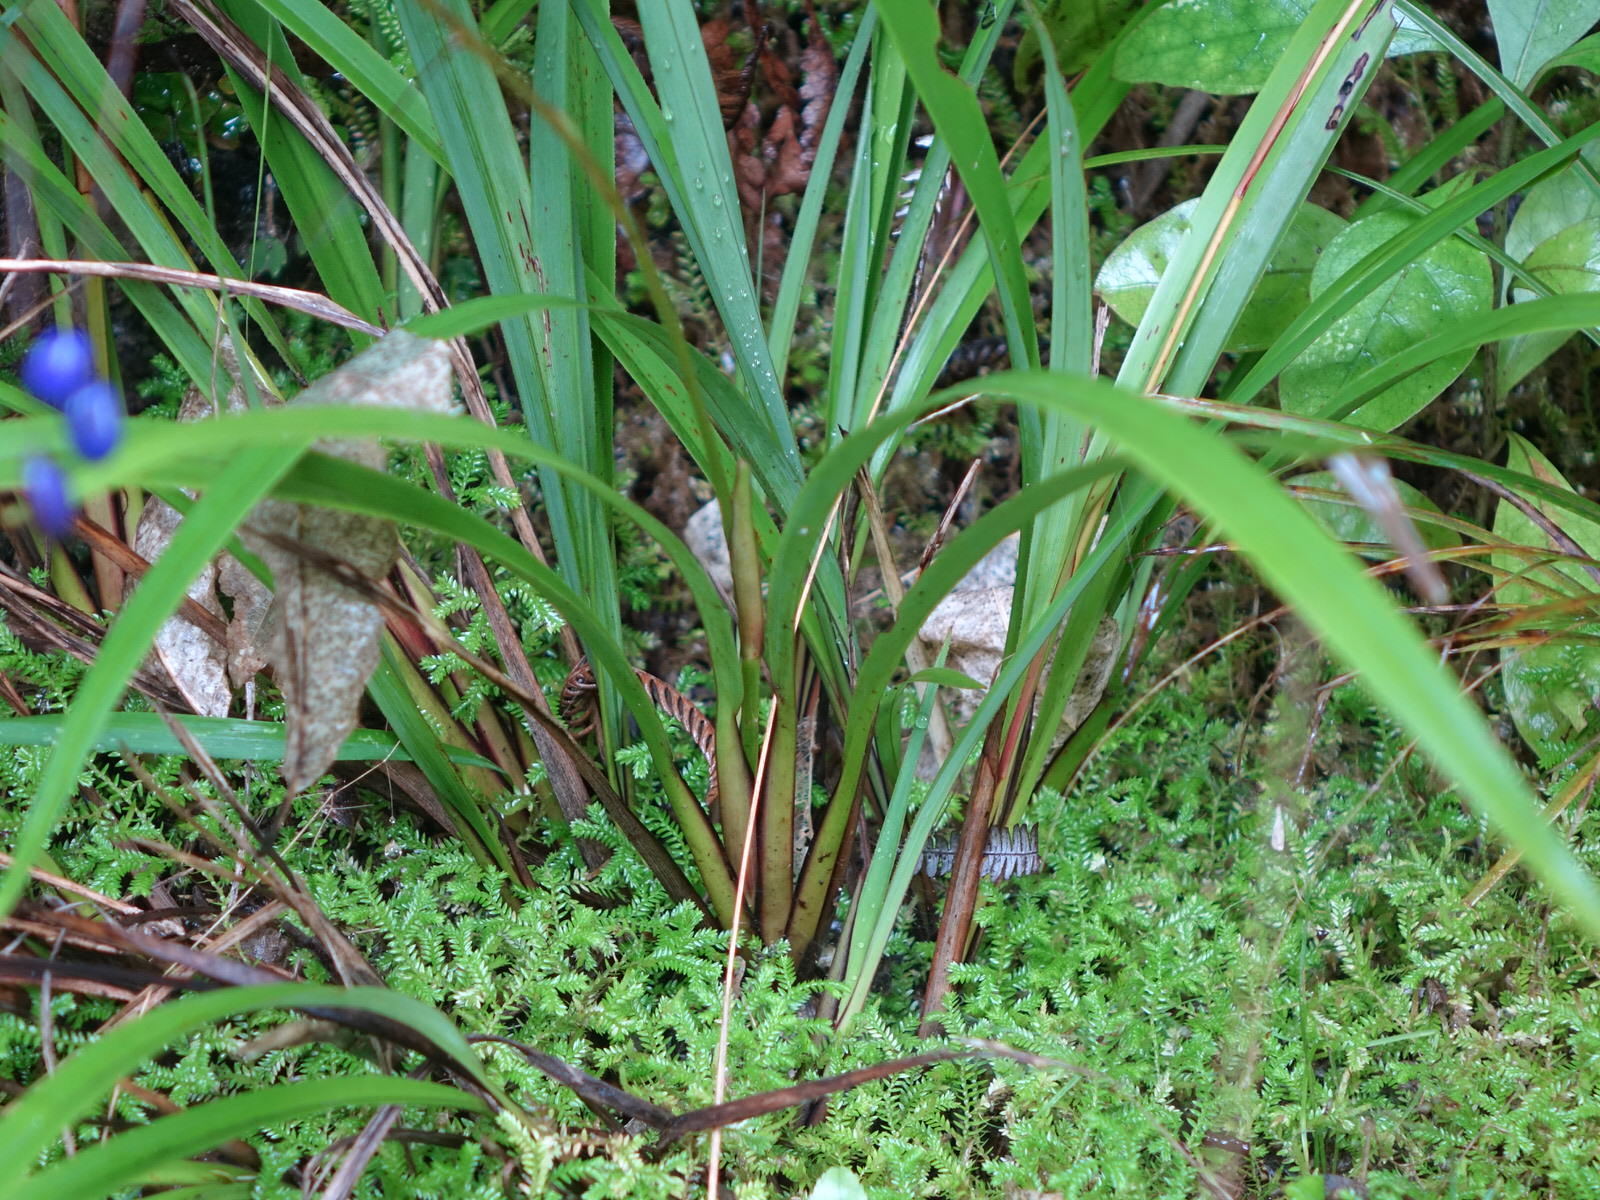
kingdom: Plantae
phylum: Tracheophyta
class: Liliopsida
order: Asparagales
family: Asphodelaceae
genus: Dianella
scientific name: Dianella nigra
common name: New zealand-blueberry
